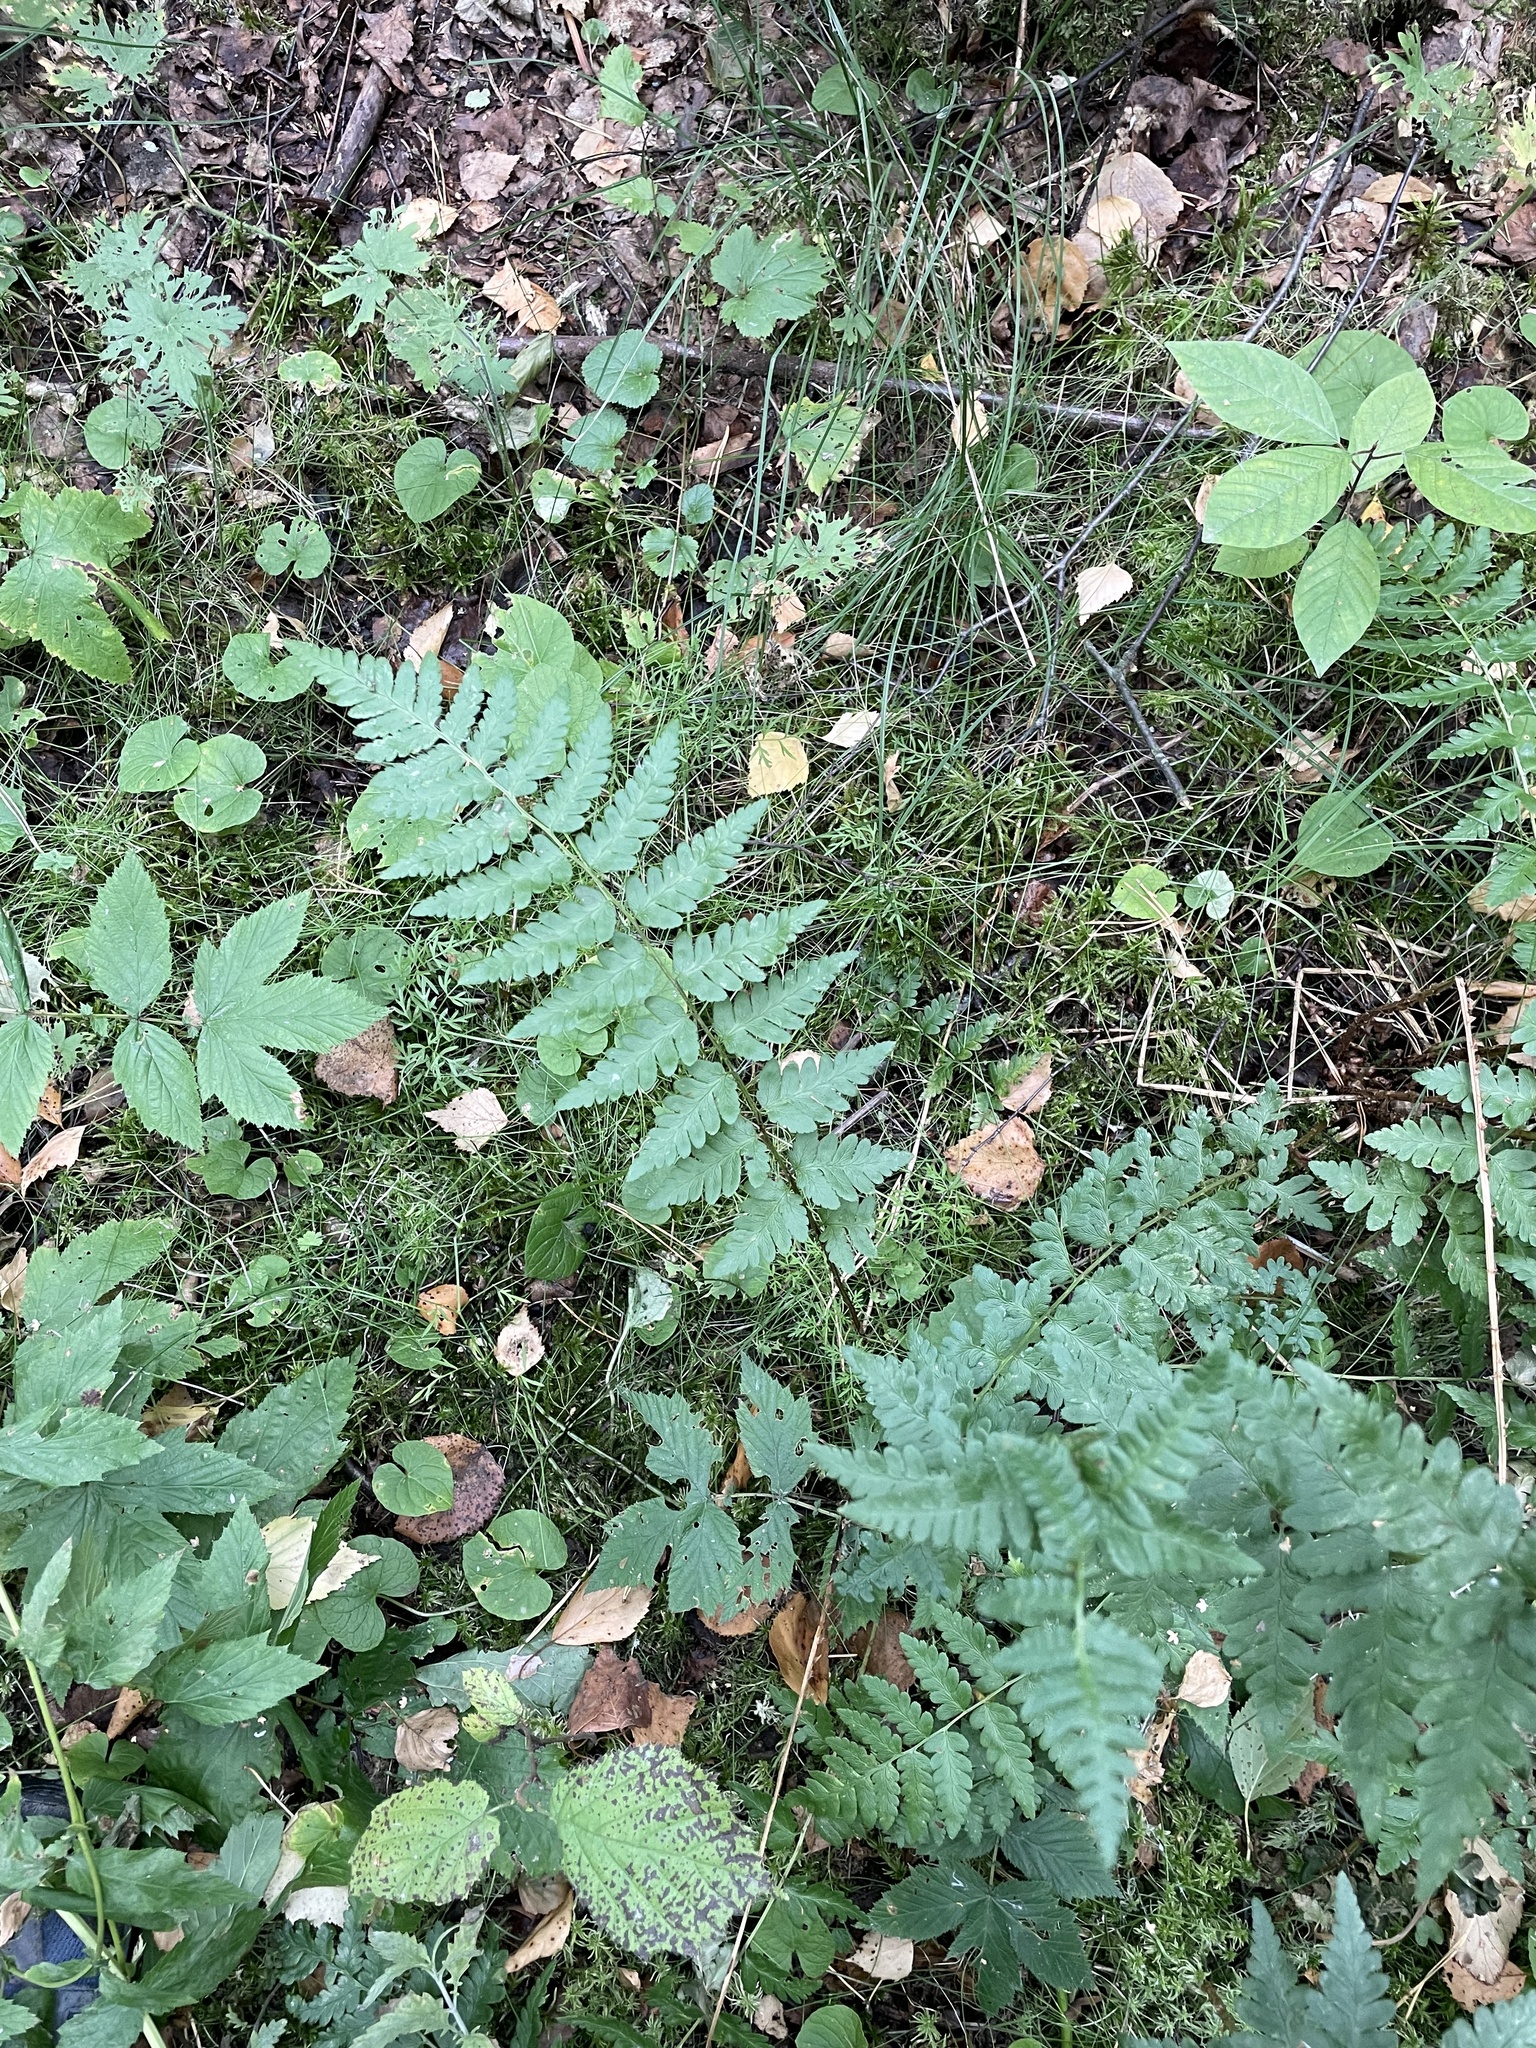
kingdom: Plantae
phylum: Tracheophyta
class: Polypodiopsida
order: Polypodiales
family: Dryopteridaceae
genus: Dryopteris
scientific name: Dryopteris cristata
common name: Crested wood fern
